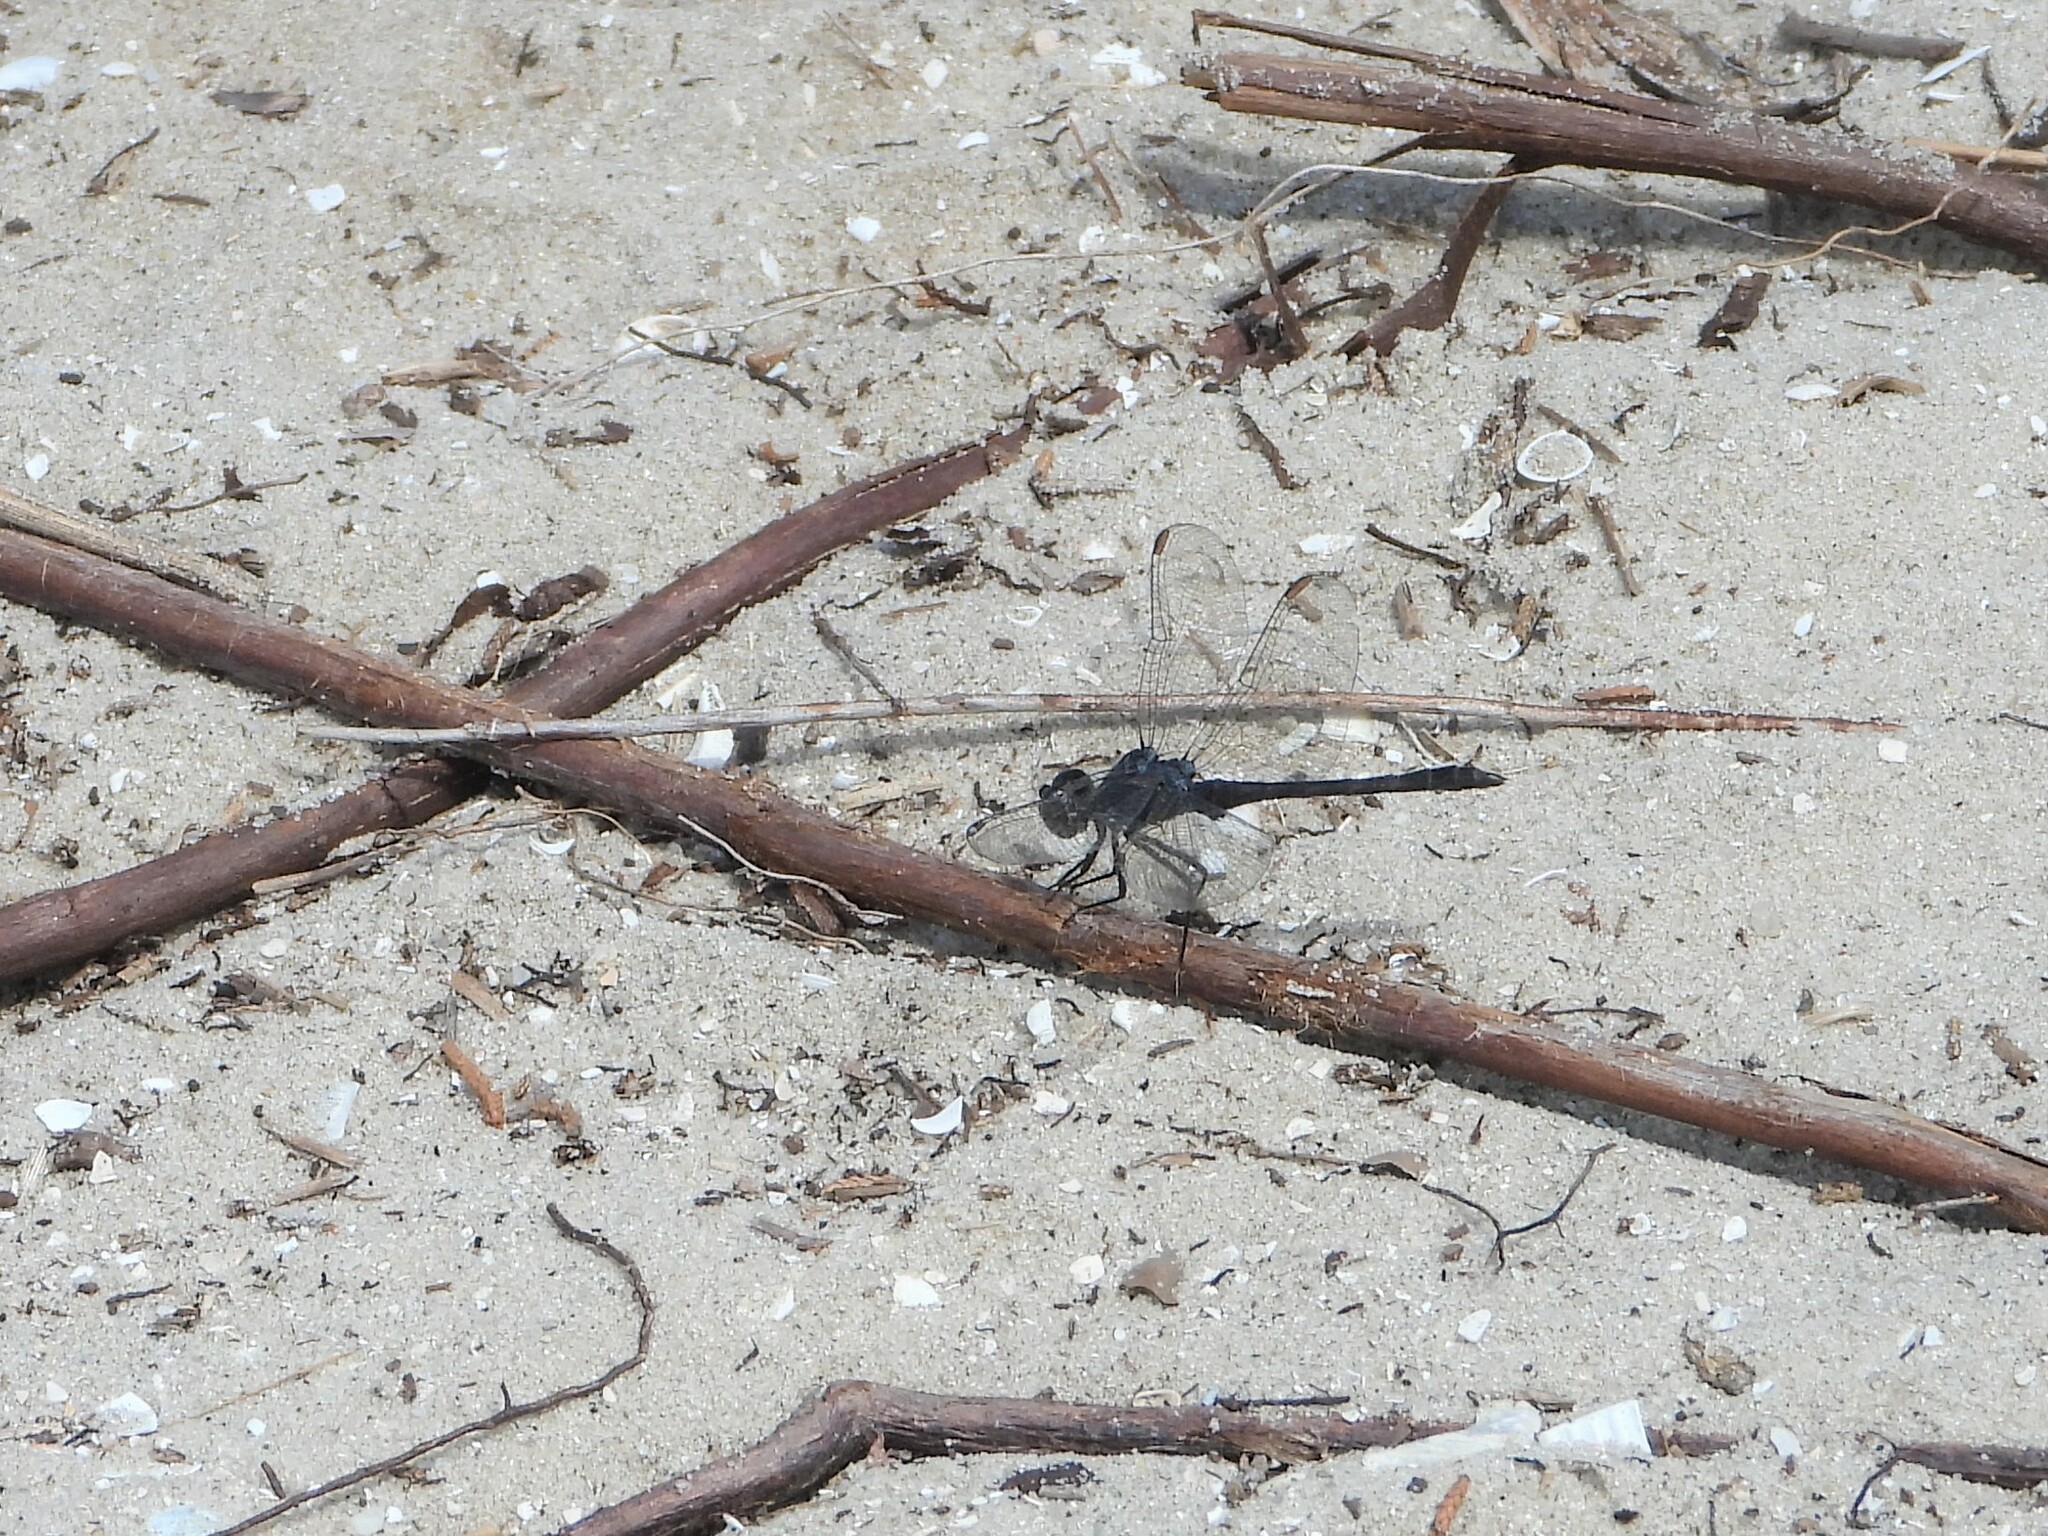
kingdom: Animalia
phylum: Arthropoda
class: Insecta
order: Odonata
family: Libellulidae
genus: Erythrodiplax
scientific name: Erythrodiplax berenice
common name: Seaside dragonlet
